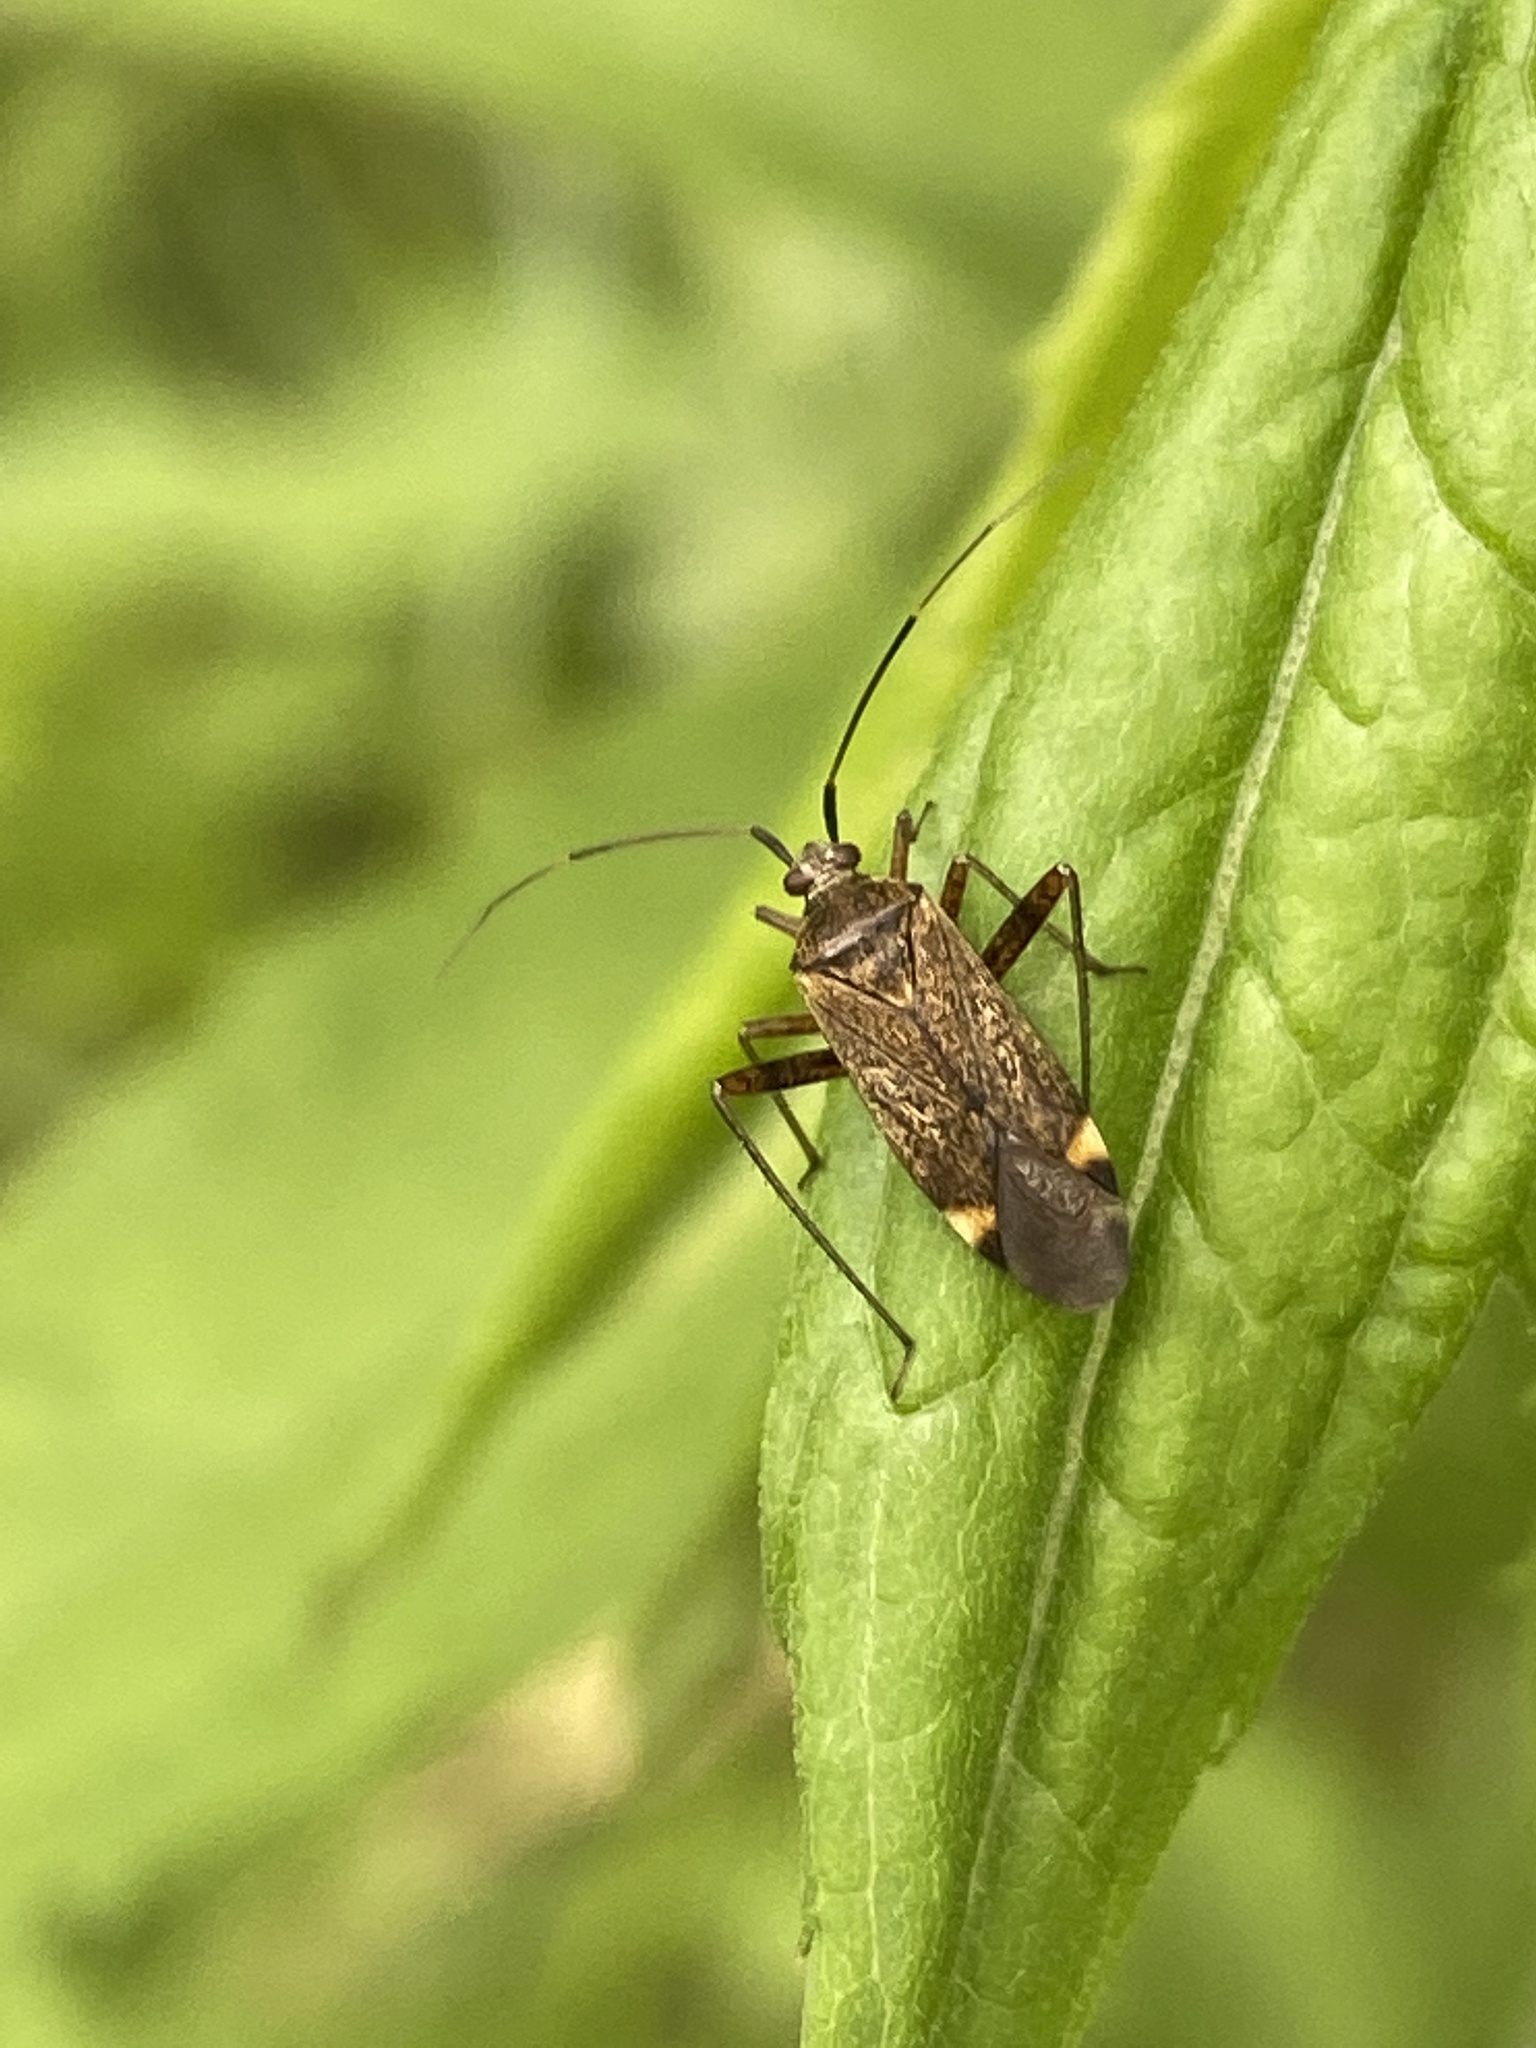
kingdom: Animalia
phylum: Arthropoda
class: Insecta
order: Hemiptera
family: Miridae
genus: Closterotomus
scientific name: Closterotomus fulvomaculatus
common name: Spotted plant bug
